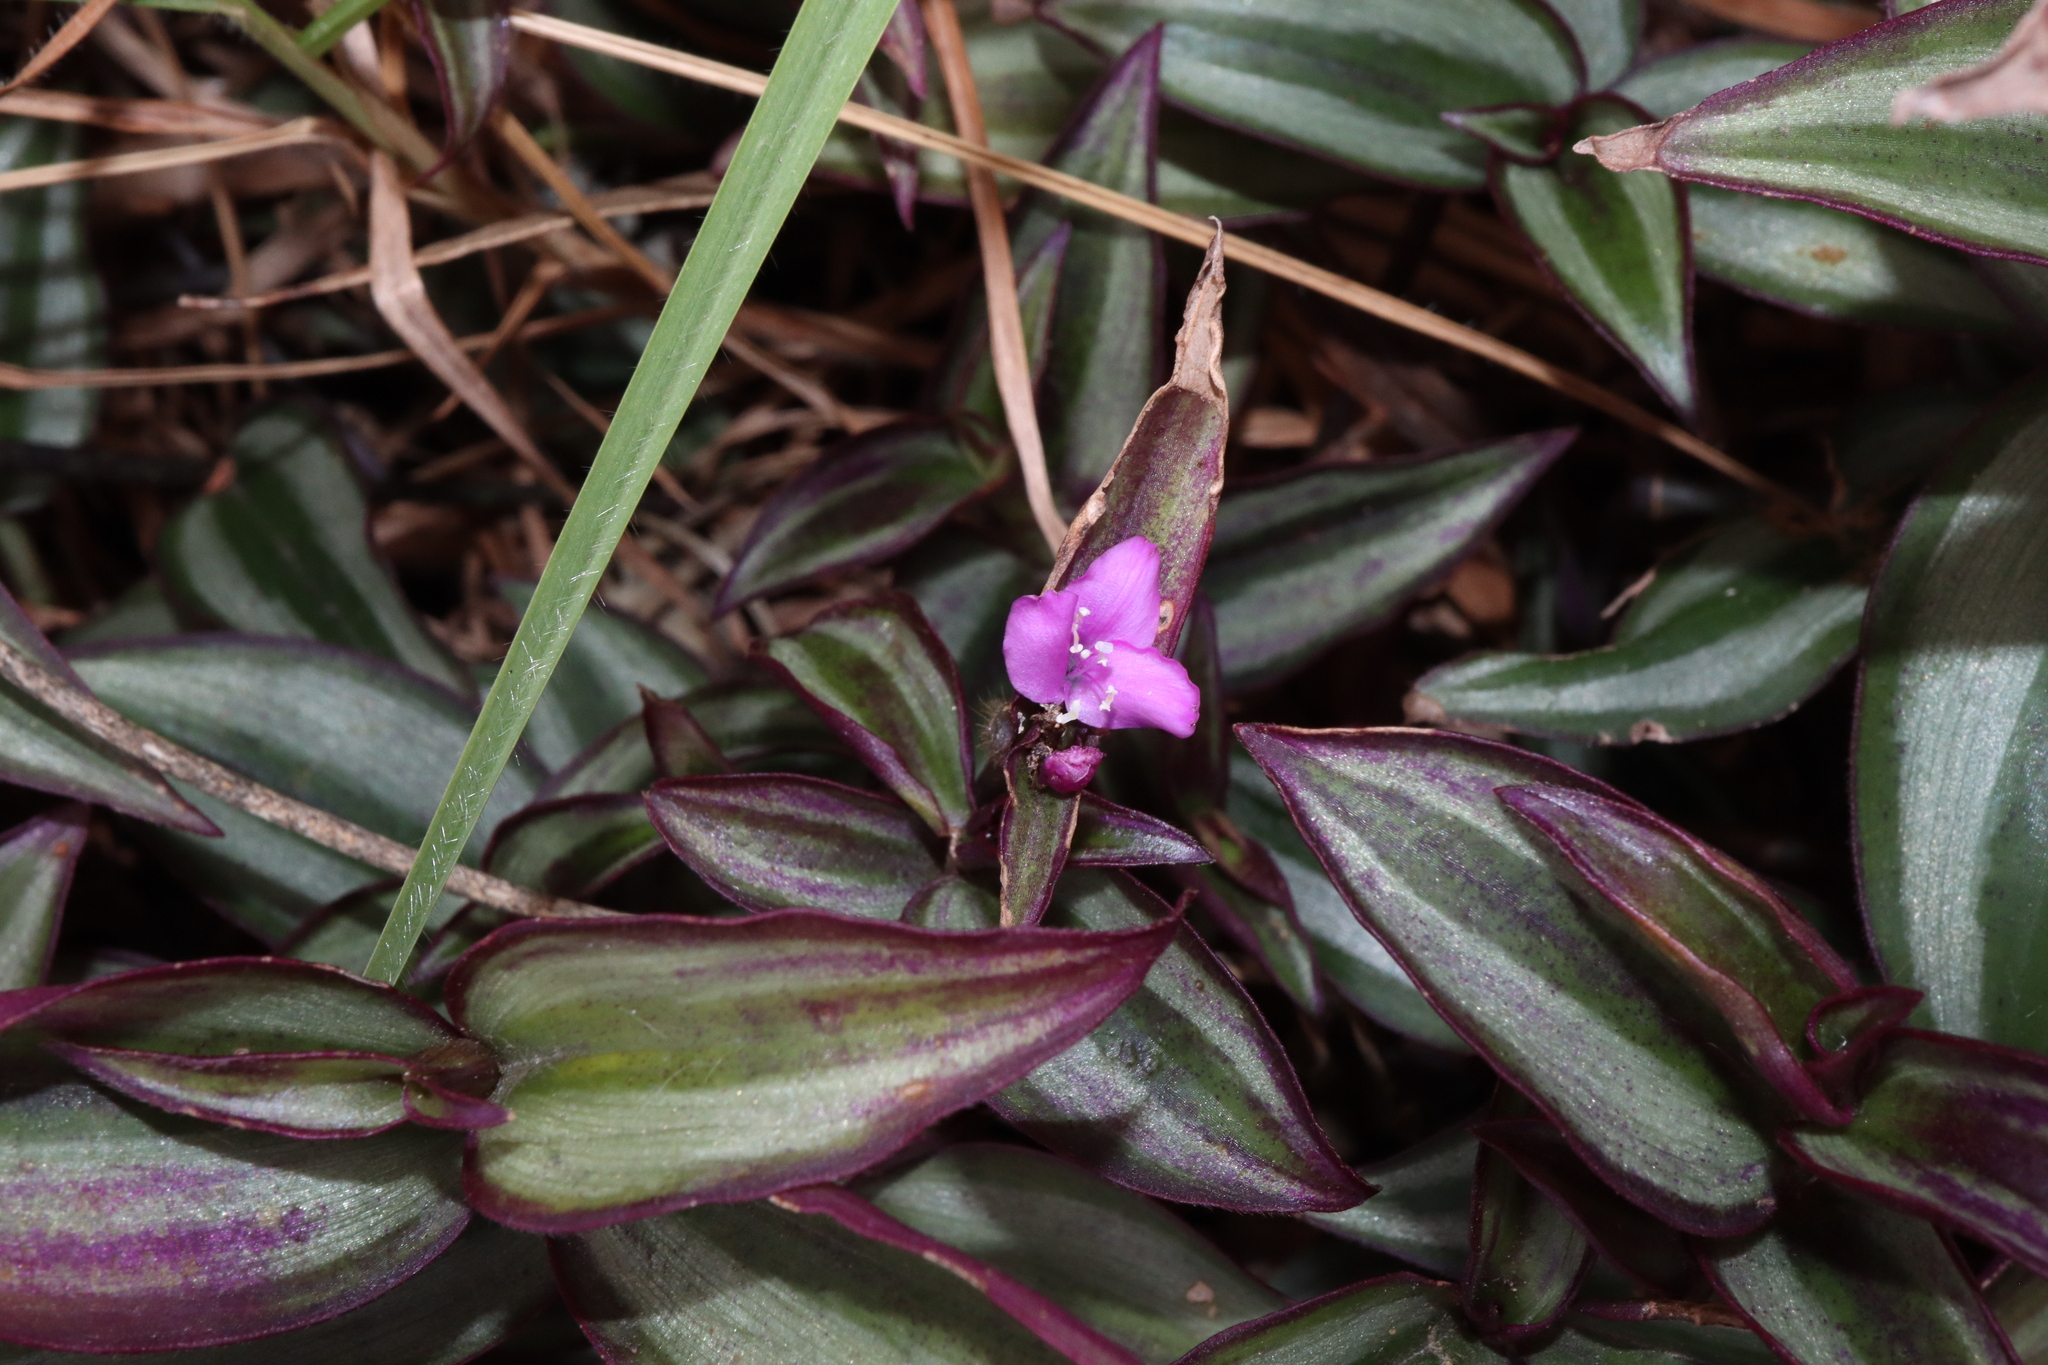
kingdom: Plantae
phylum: Tracheophyta
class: Liliopsida
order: Commelinales
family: Commelinaceae
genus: Tradescantia
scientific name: Tradescantia zebrina
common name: Inchplant
